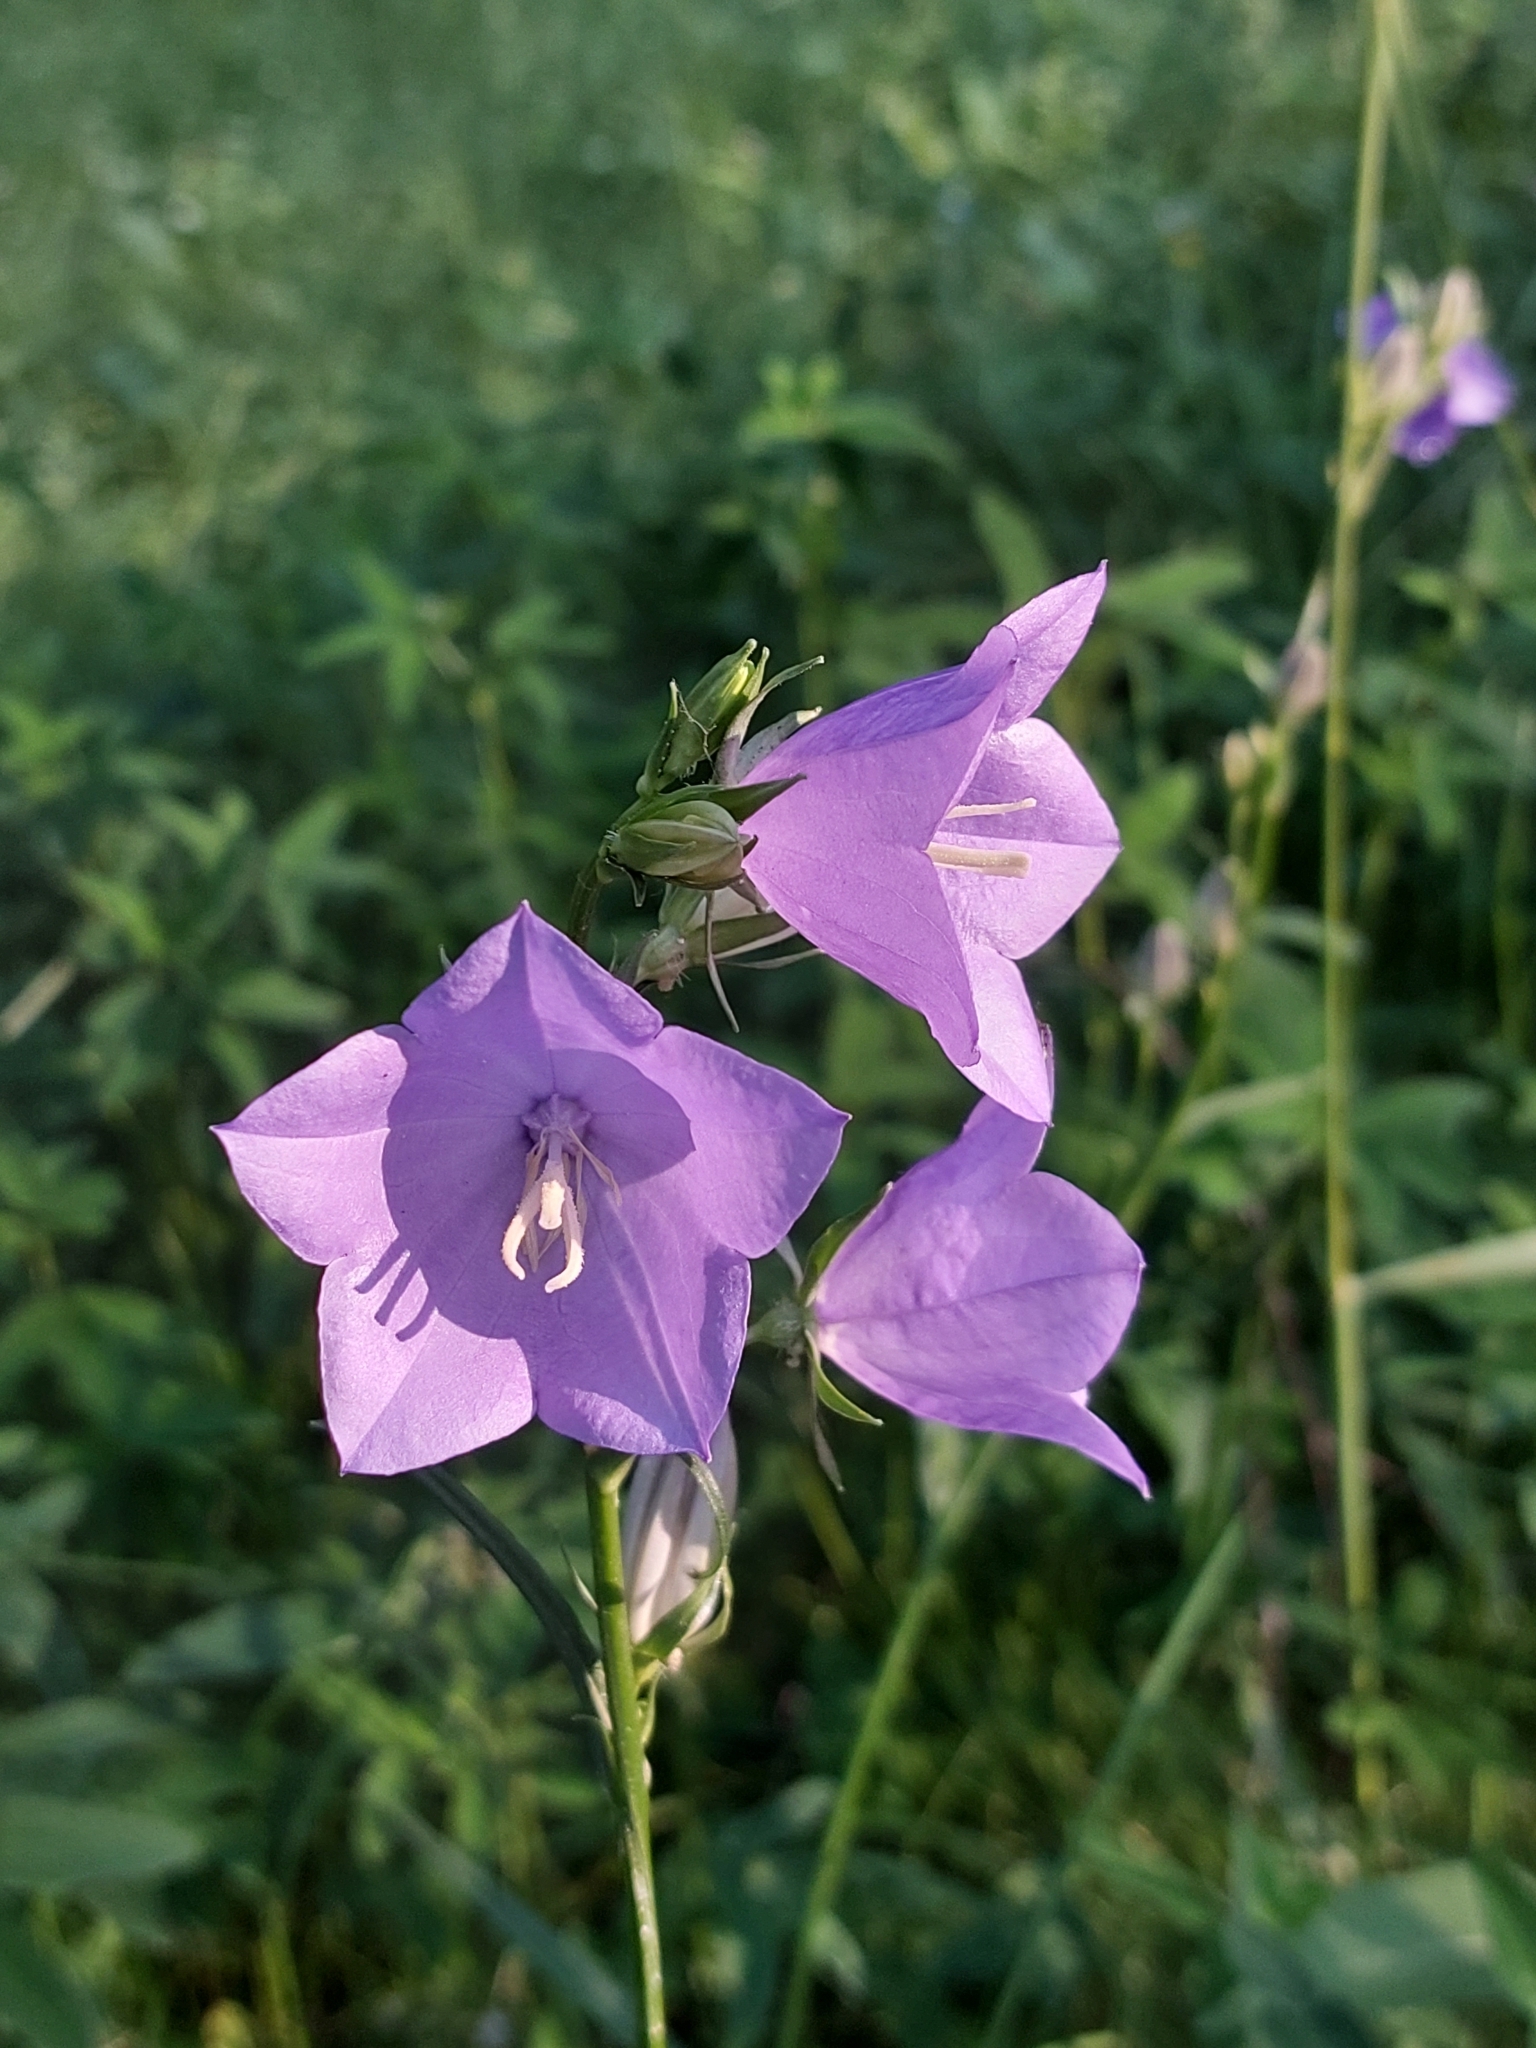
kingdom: Plantae
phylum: Tracheophyta
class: Magnoliopsida
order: Asterales
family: Campanulaceae
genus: Campanula
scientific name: Campanula persicifolia
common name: Peach-leaved bellflower
